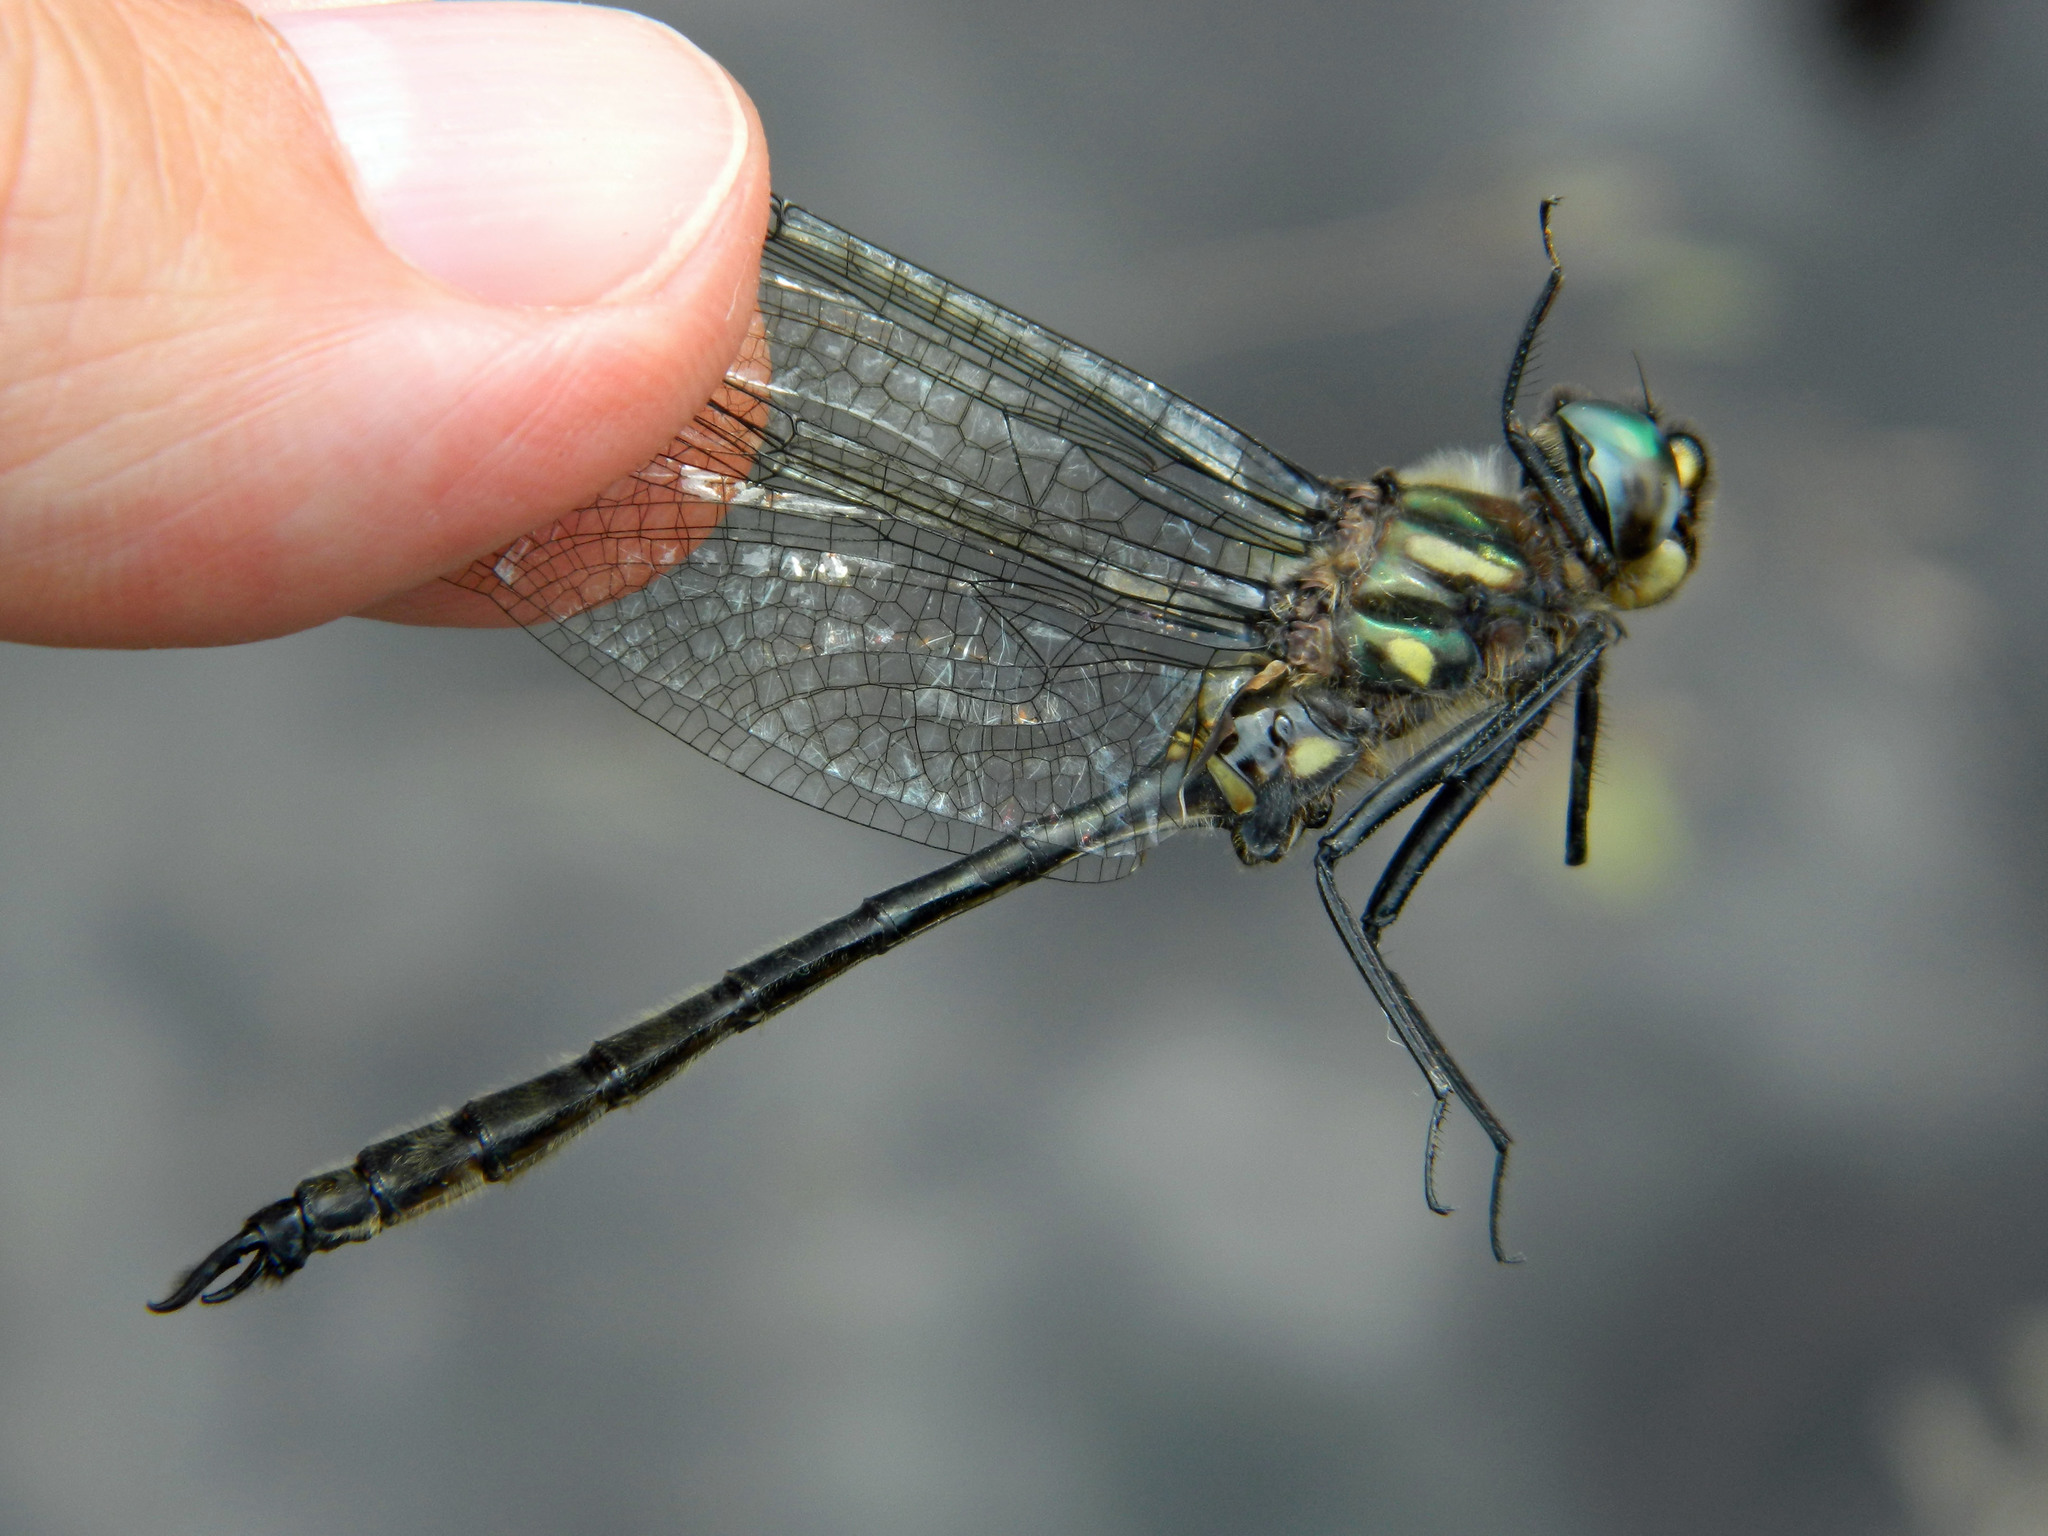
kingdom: Animalia
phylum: Arthropoda
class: Insecta
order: Odonata
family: Corduliidae
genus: Somatochlora
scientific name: Somatochlora elongata
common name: Ski-tipped emerald
